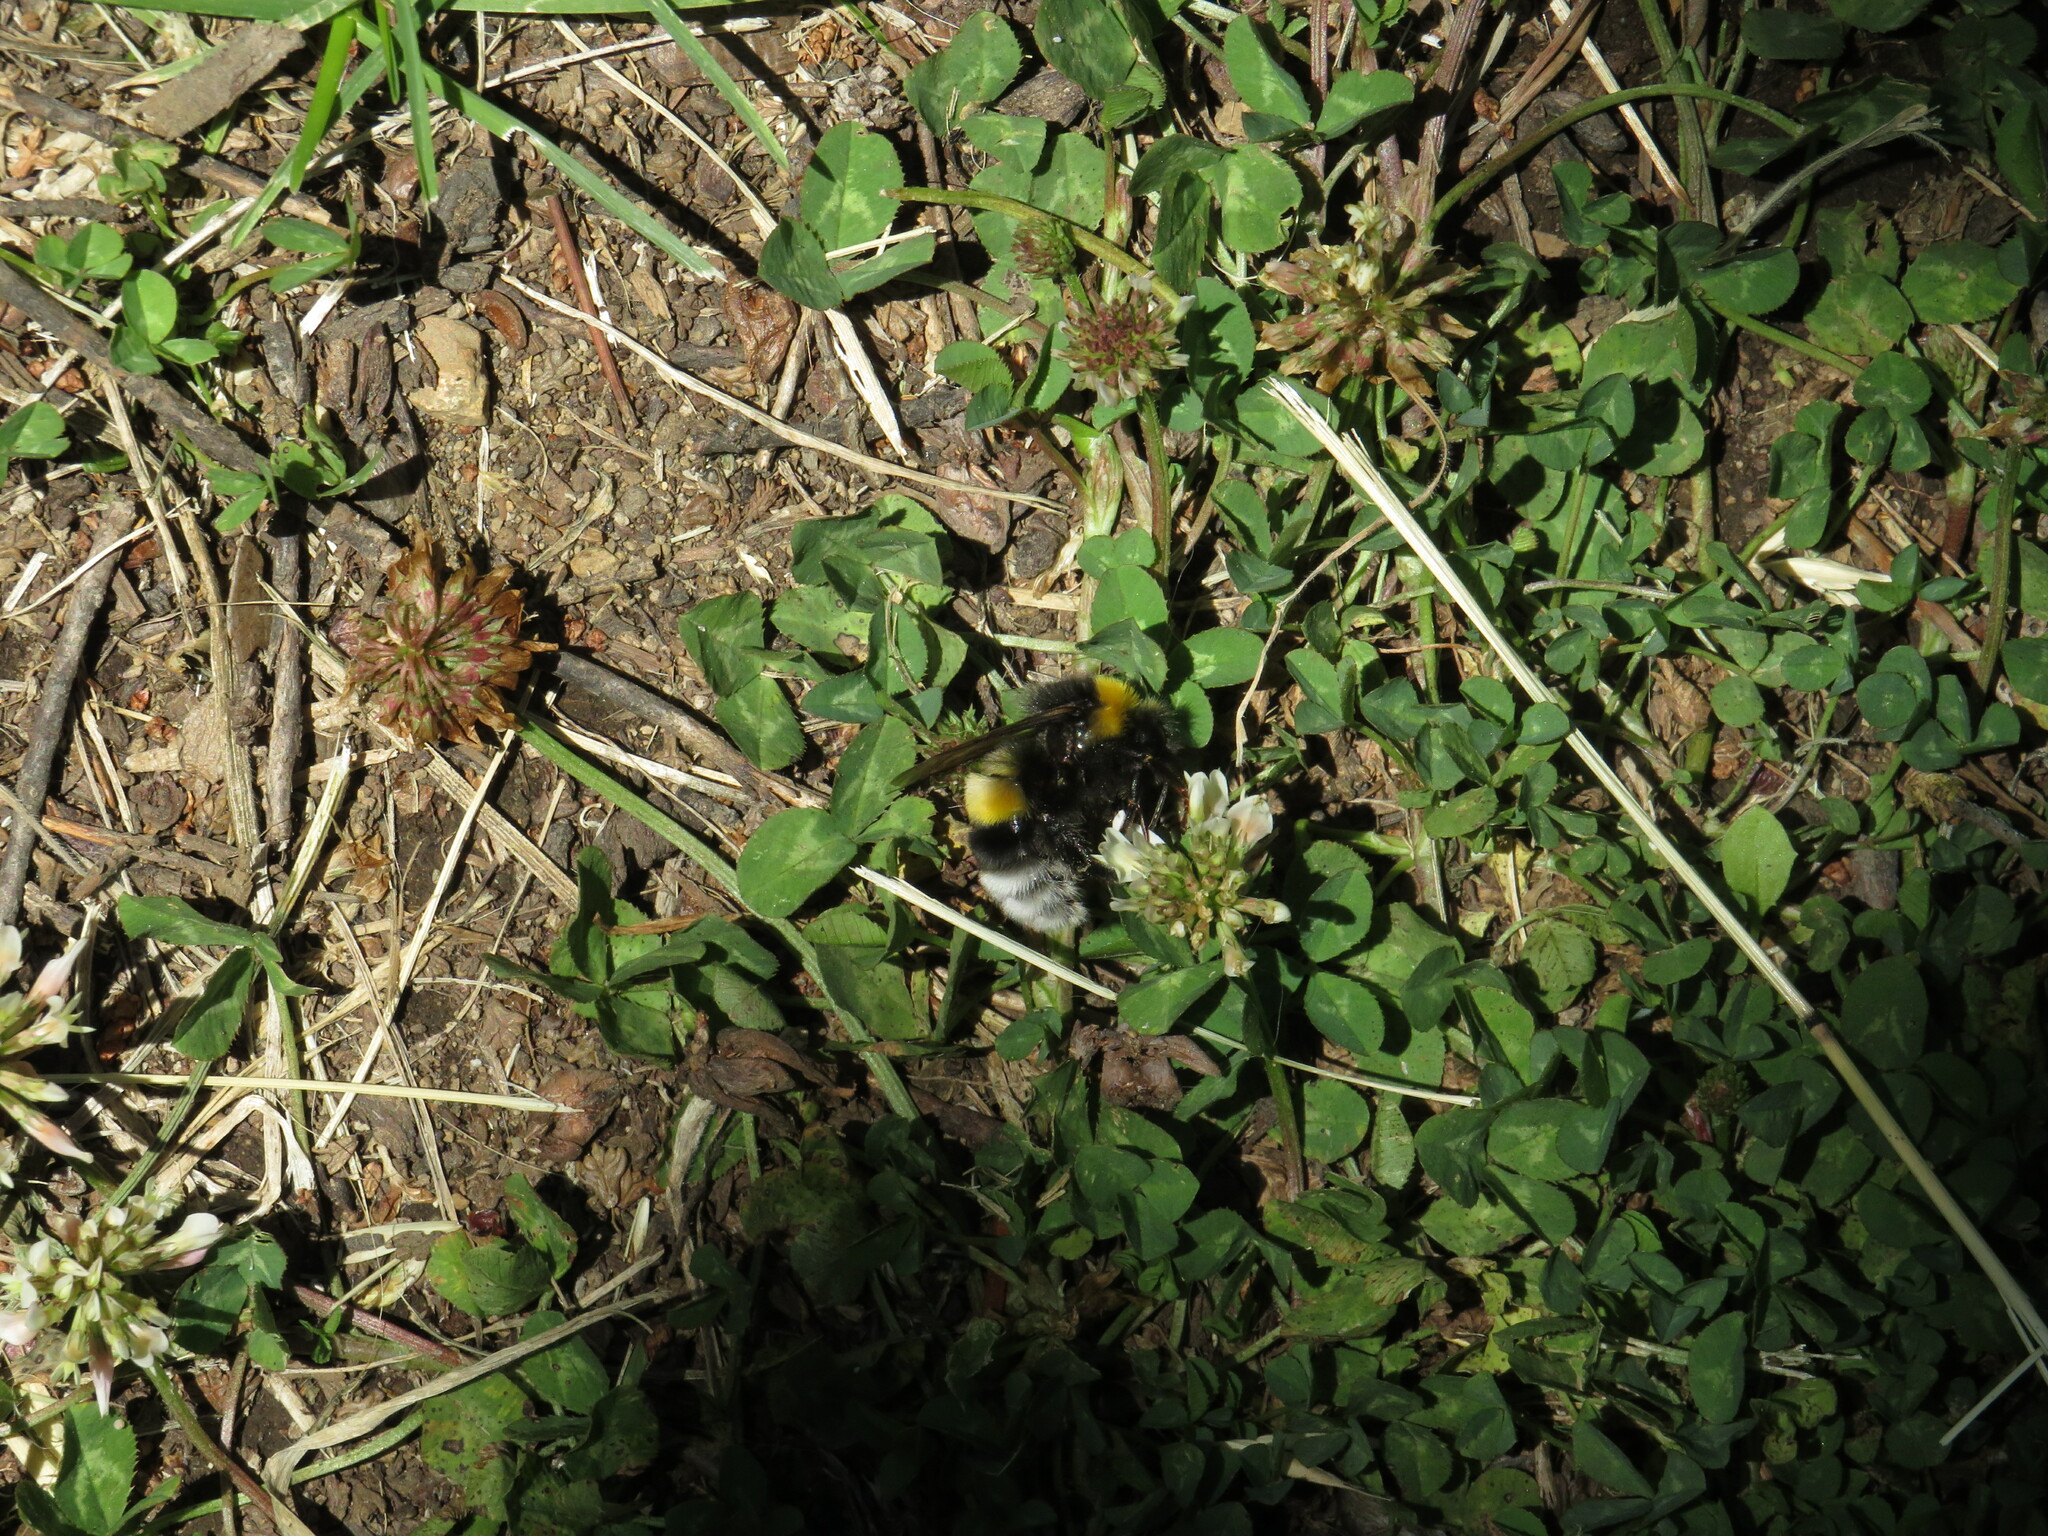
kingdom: Animalia
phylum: Arthropoda
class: Insecta
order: Hymenoptera
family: Apidae
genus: Bombus
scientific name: Bombus terrestris
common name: Buff-tailed bumblebee
